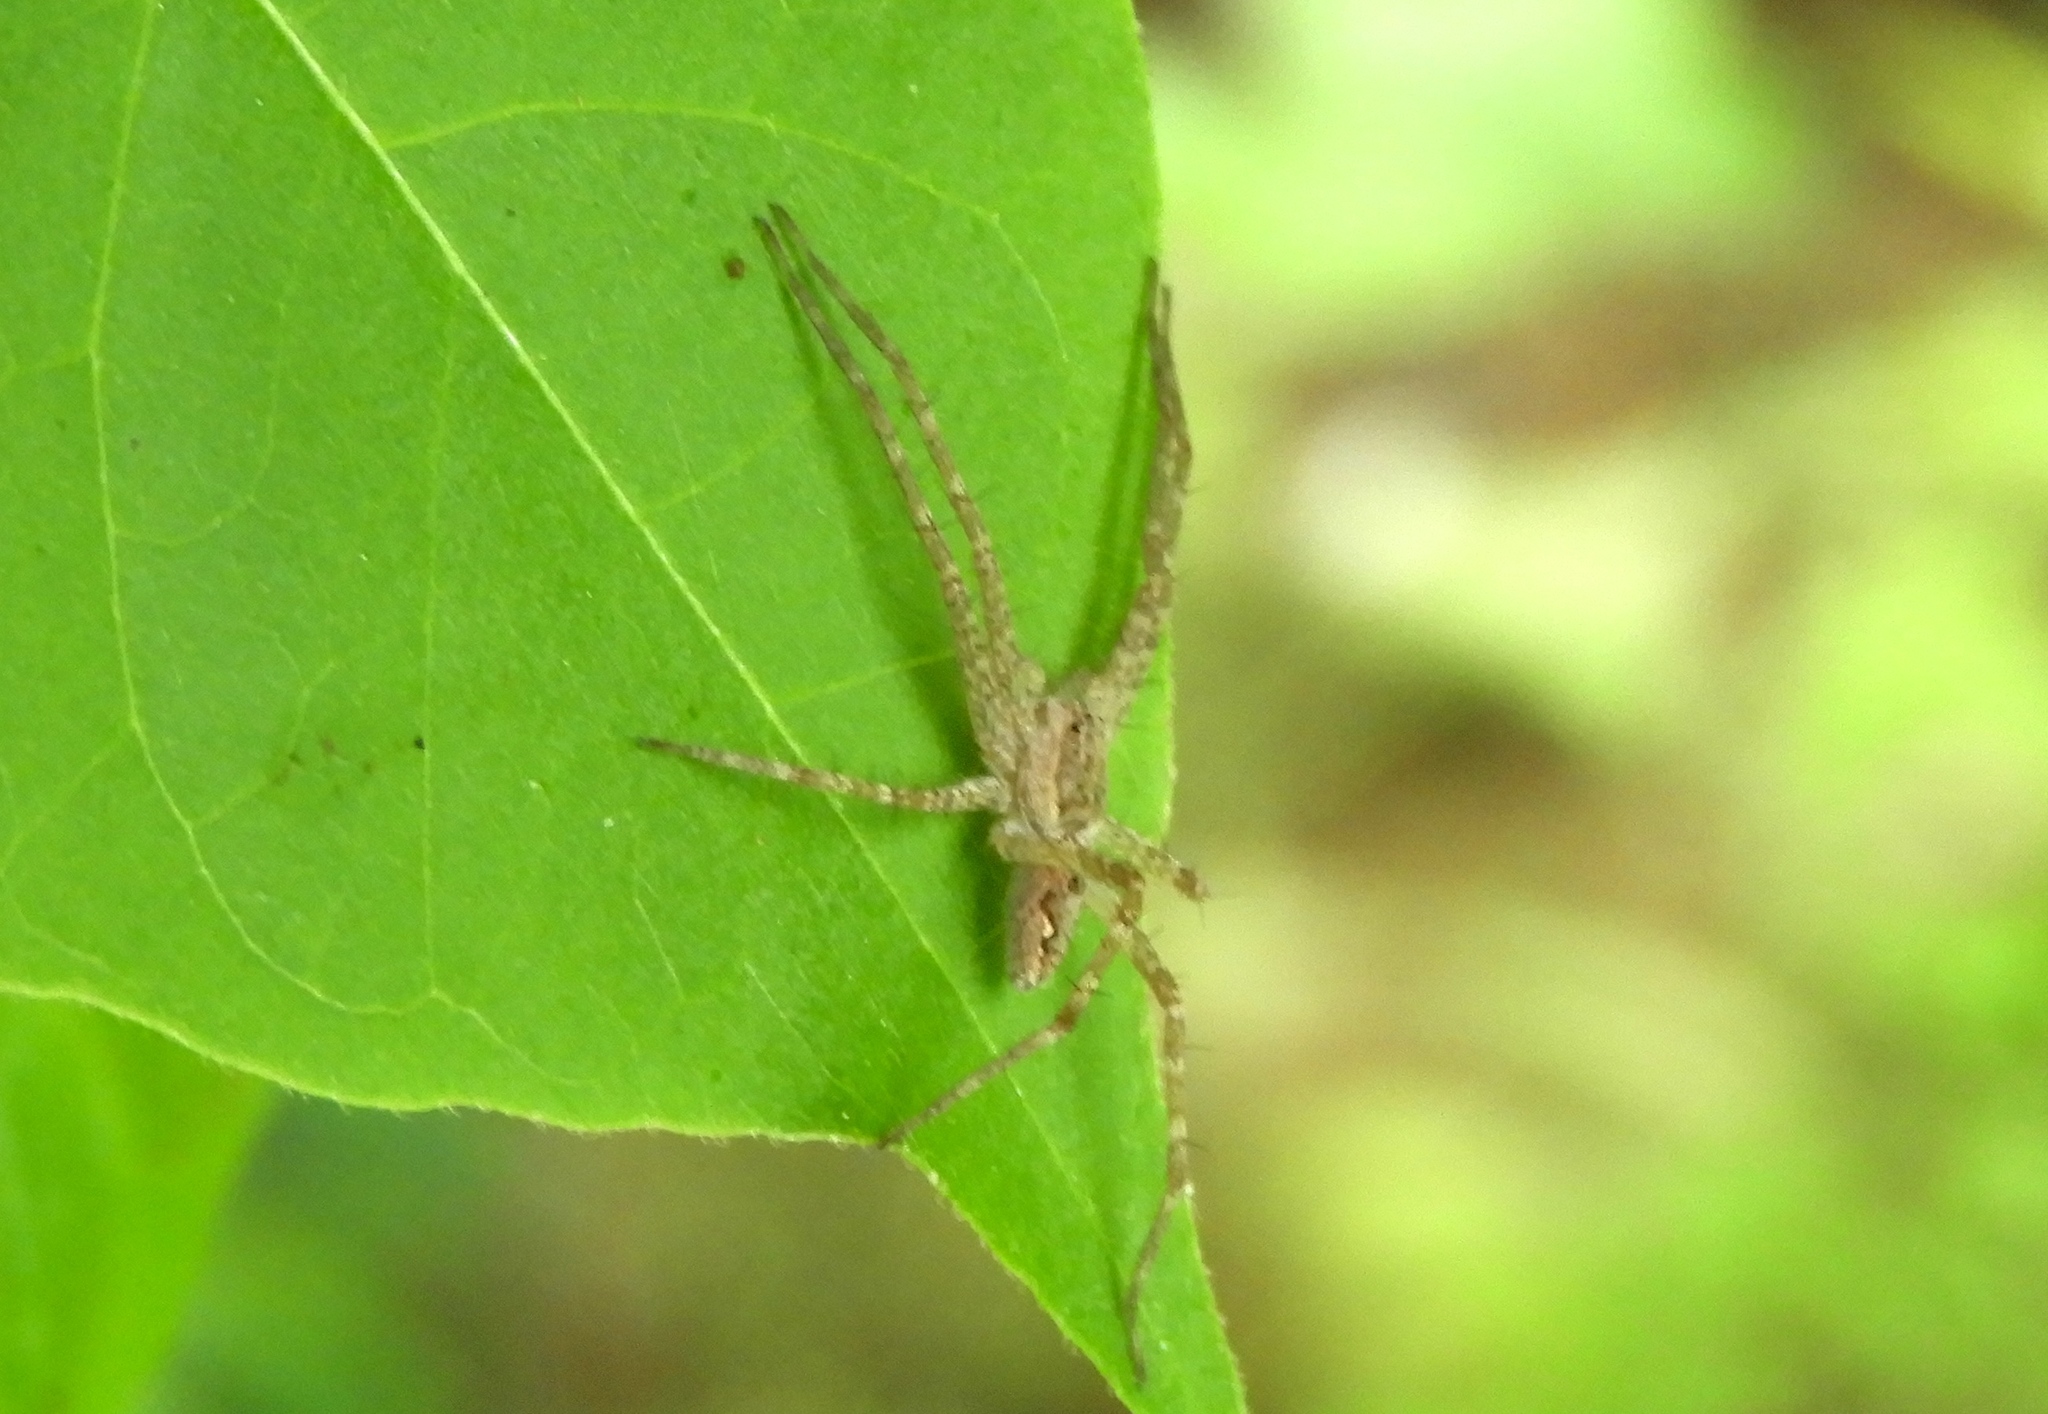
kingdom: Animalia
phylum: Arthropoda
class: Arachnida
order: Araneae
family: Pisauridae
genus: Tinus
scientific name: Tinus
